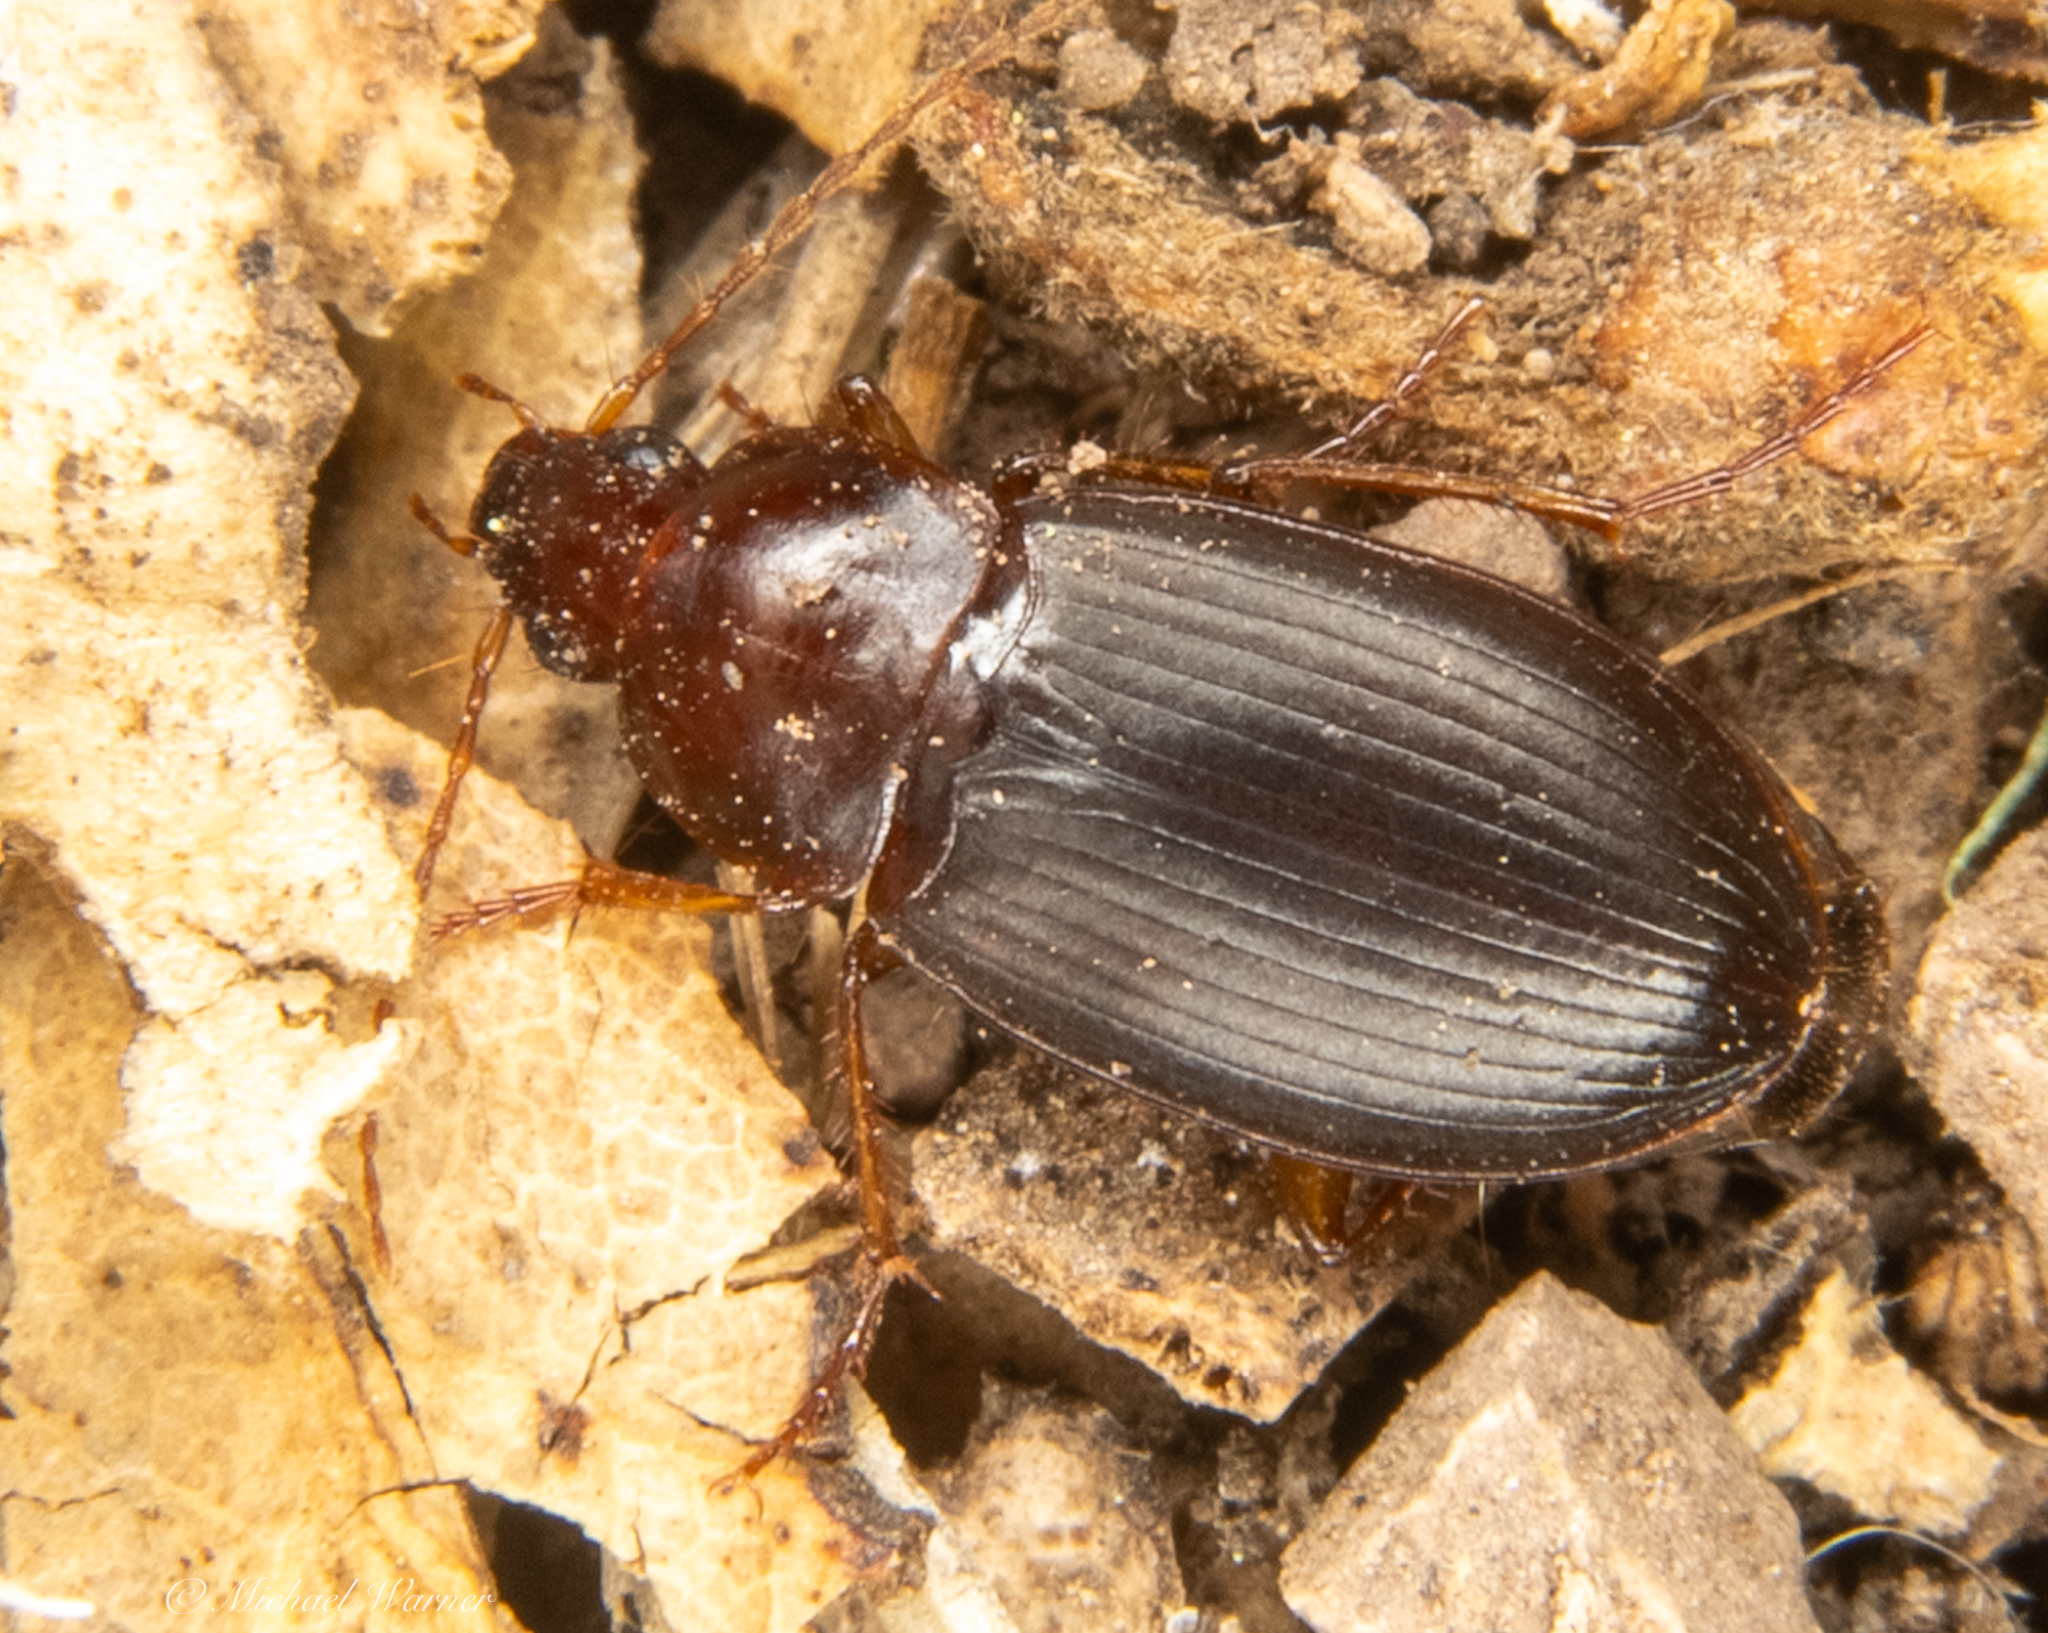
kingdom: Animalia
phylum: Arthropoda
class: Insecta
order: Coleoptera
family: Carabidae
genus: Calathus
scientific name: Calathus ruficollis
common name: Red-collared harp ground beetle
